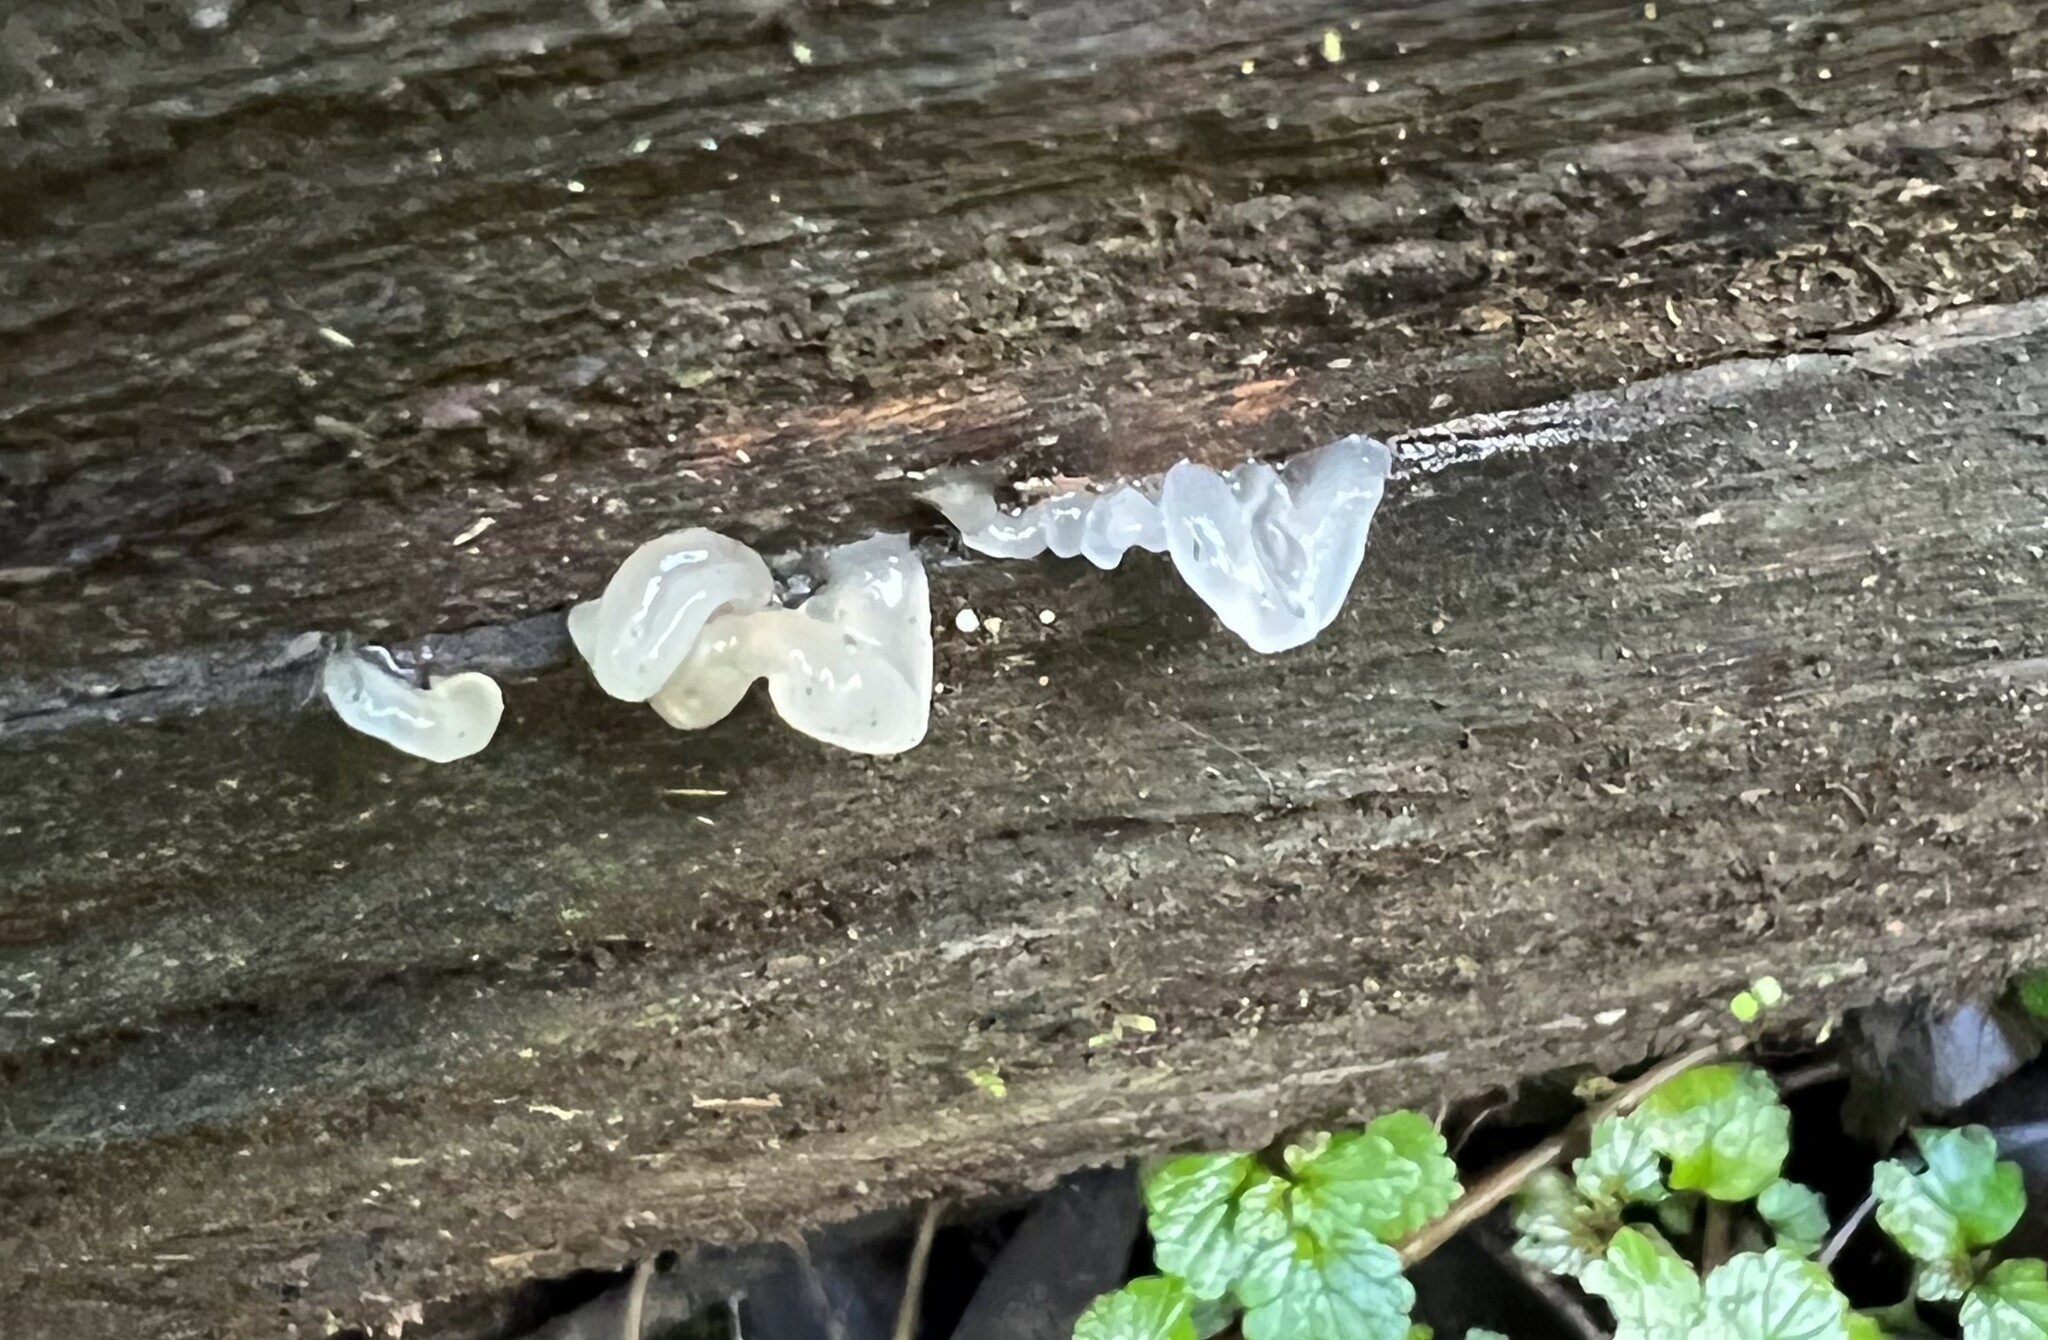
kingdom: Fungi
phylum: Basidiomycota
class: Tremellomycetes
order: Tremellales
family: Tremellaceae
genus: Tremella
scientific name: Tremella fuciformis
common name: Snow fungus
